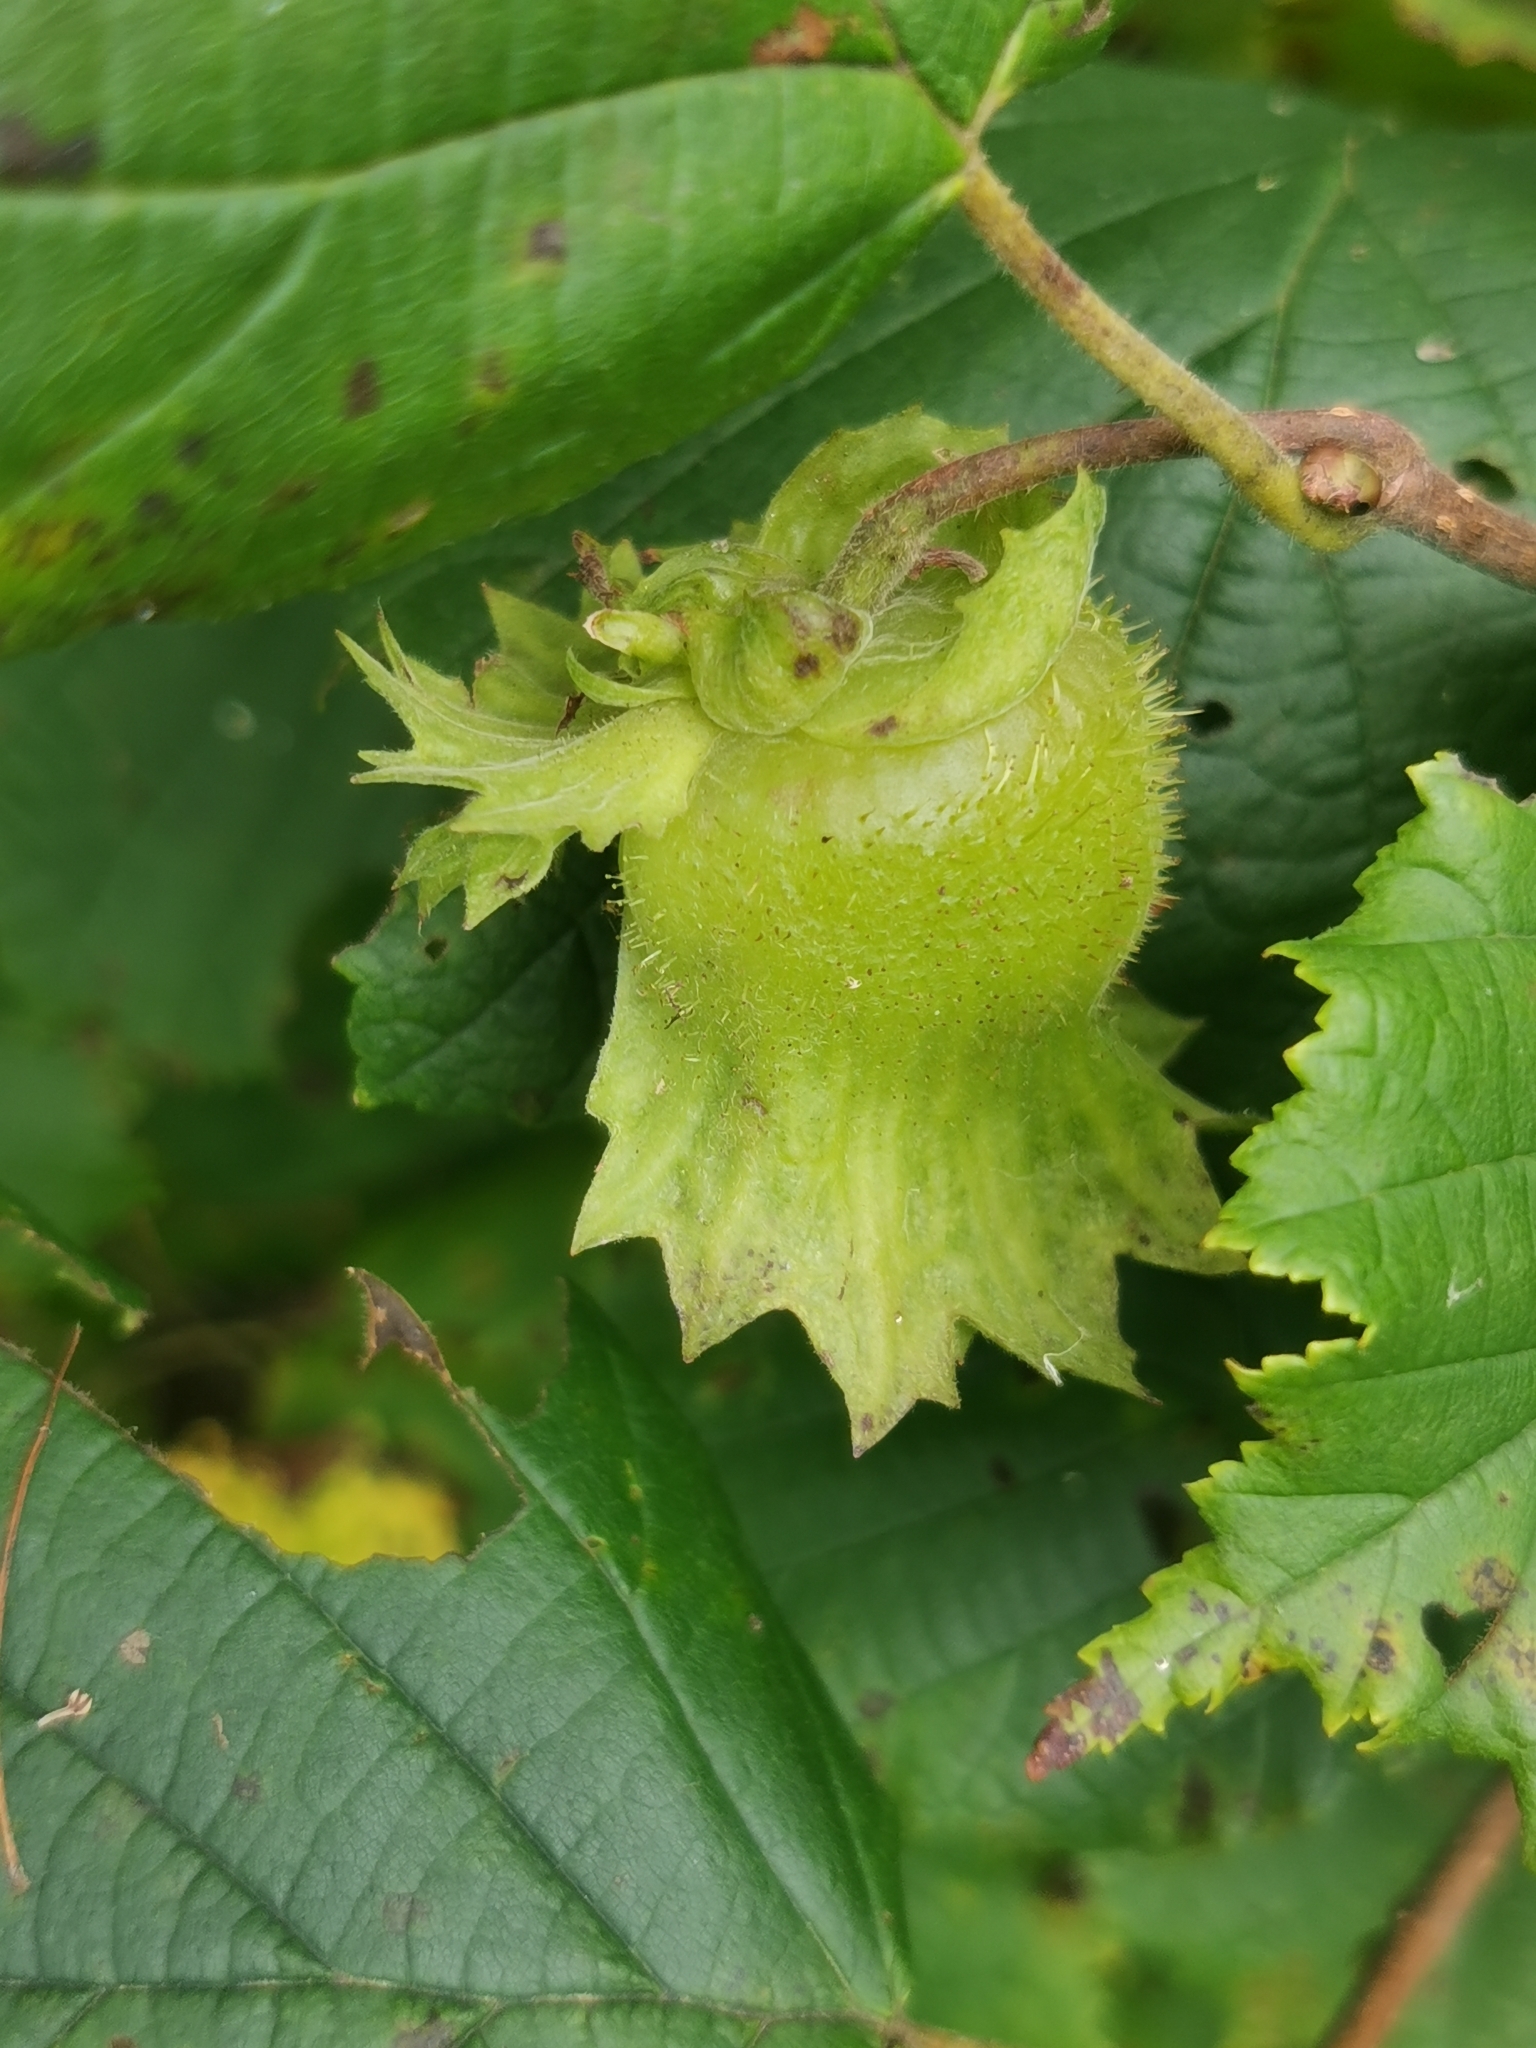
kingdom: Plantae
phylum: Tracheophyta
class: Magnoliopsida
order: Fagales
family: Betulaceae
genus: Corylus
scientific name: Corylus heterophylla
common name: Siberian hazelnut
